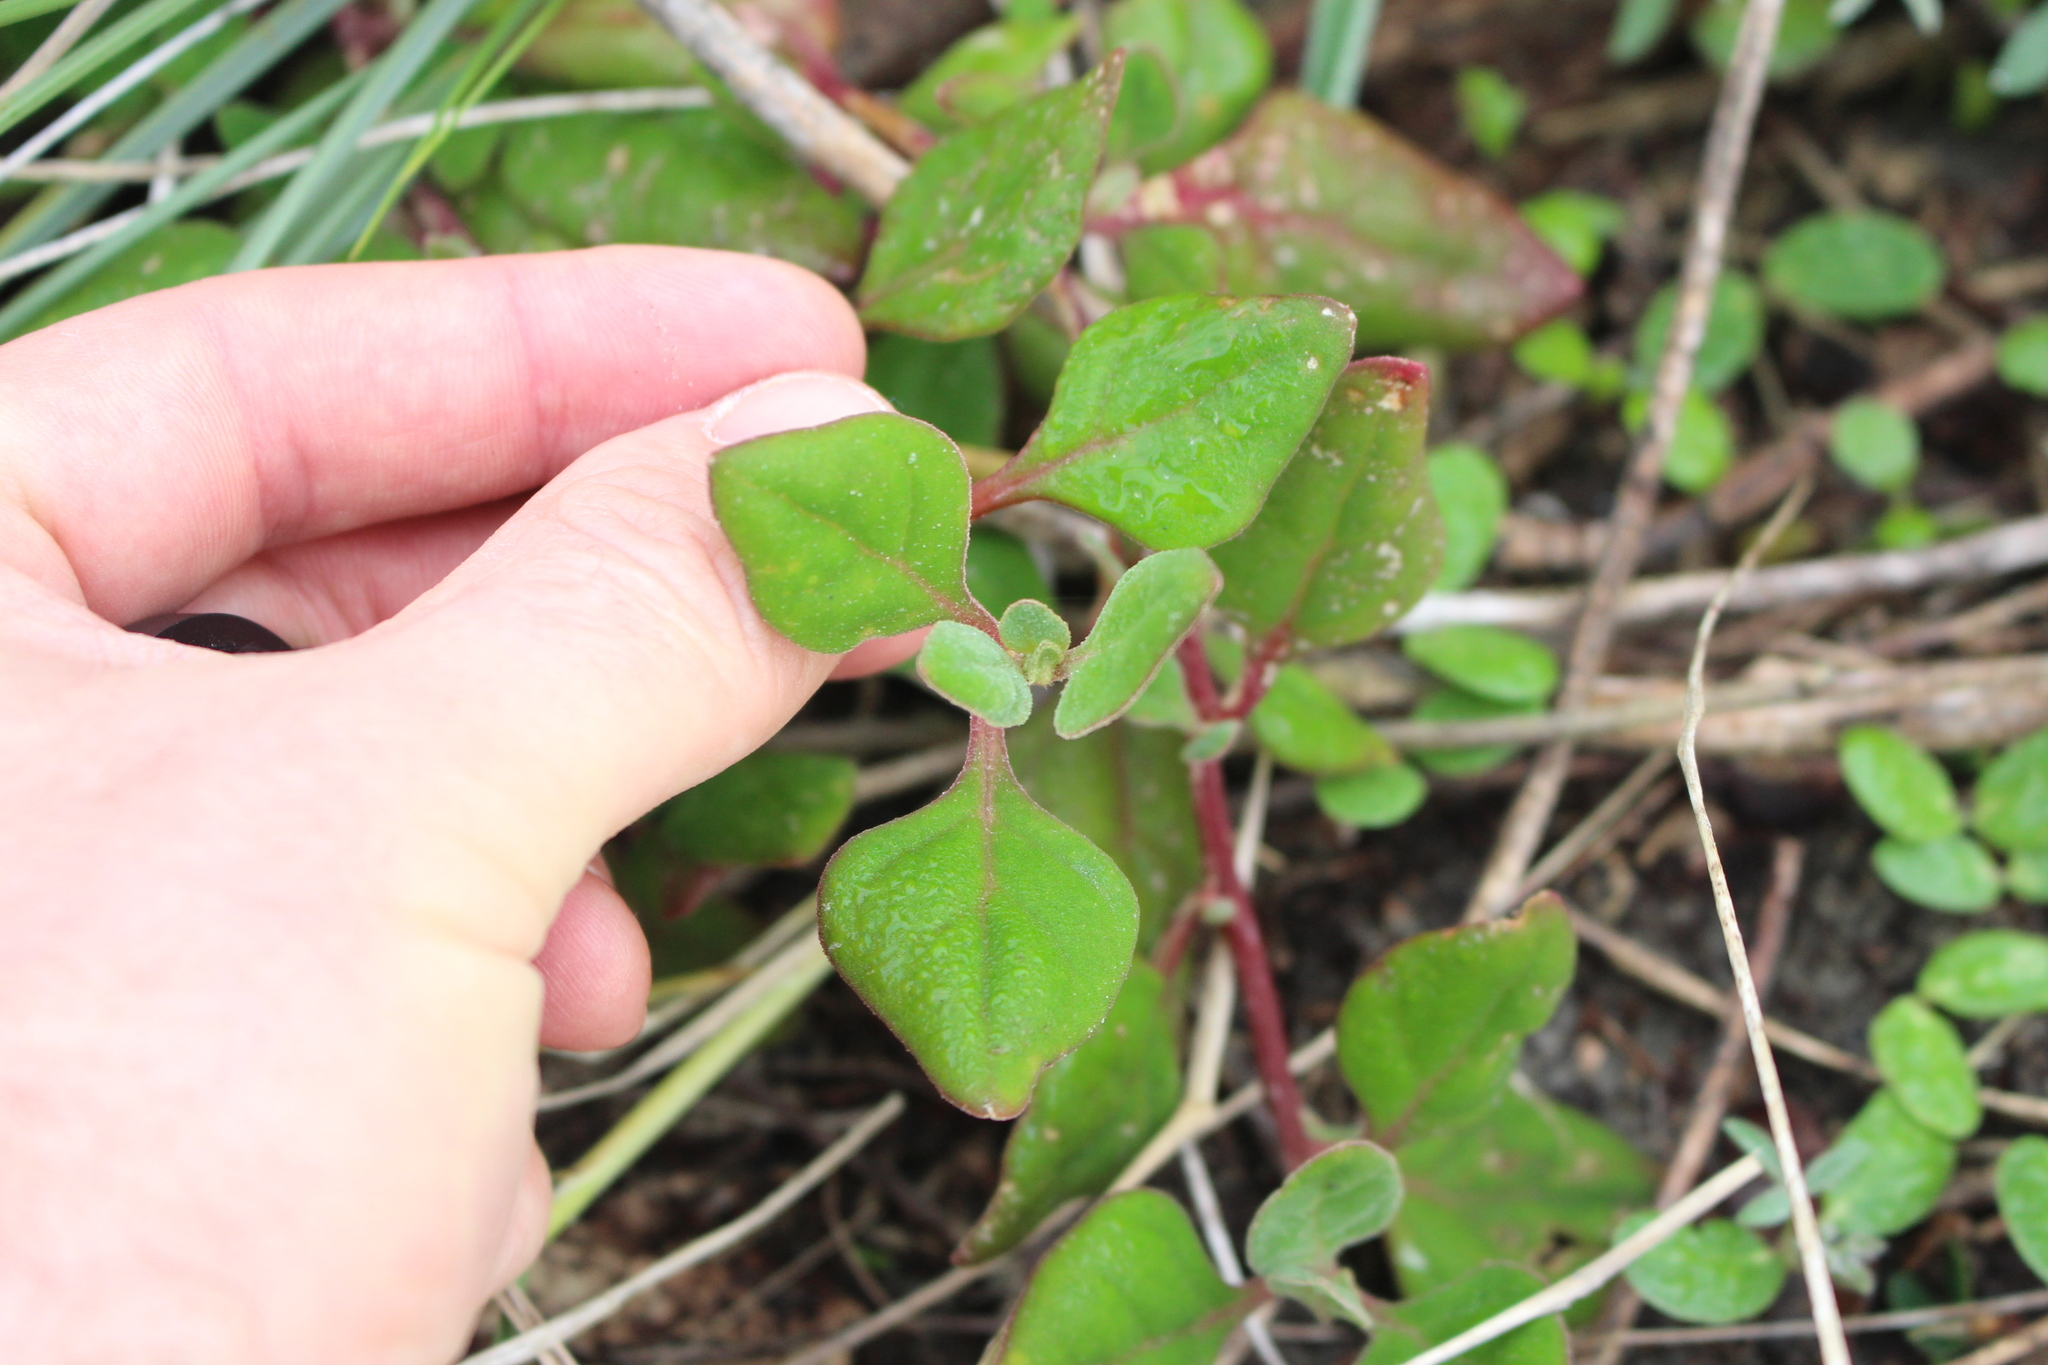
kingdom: Plantae
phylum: Tracheophyta
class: Magnoliopsida
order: Caryophyllales
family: Aizoaceae
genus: Tetragonia
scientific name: Tetragonia implexicoma
